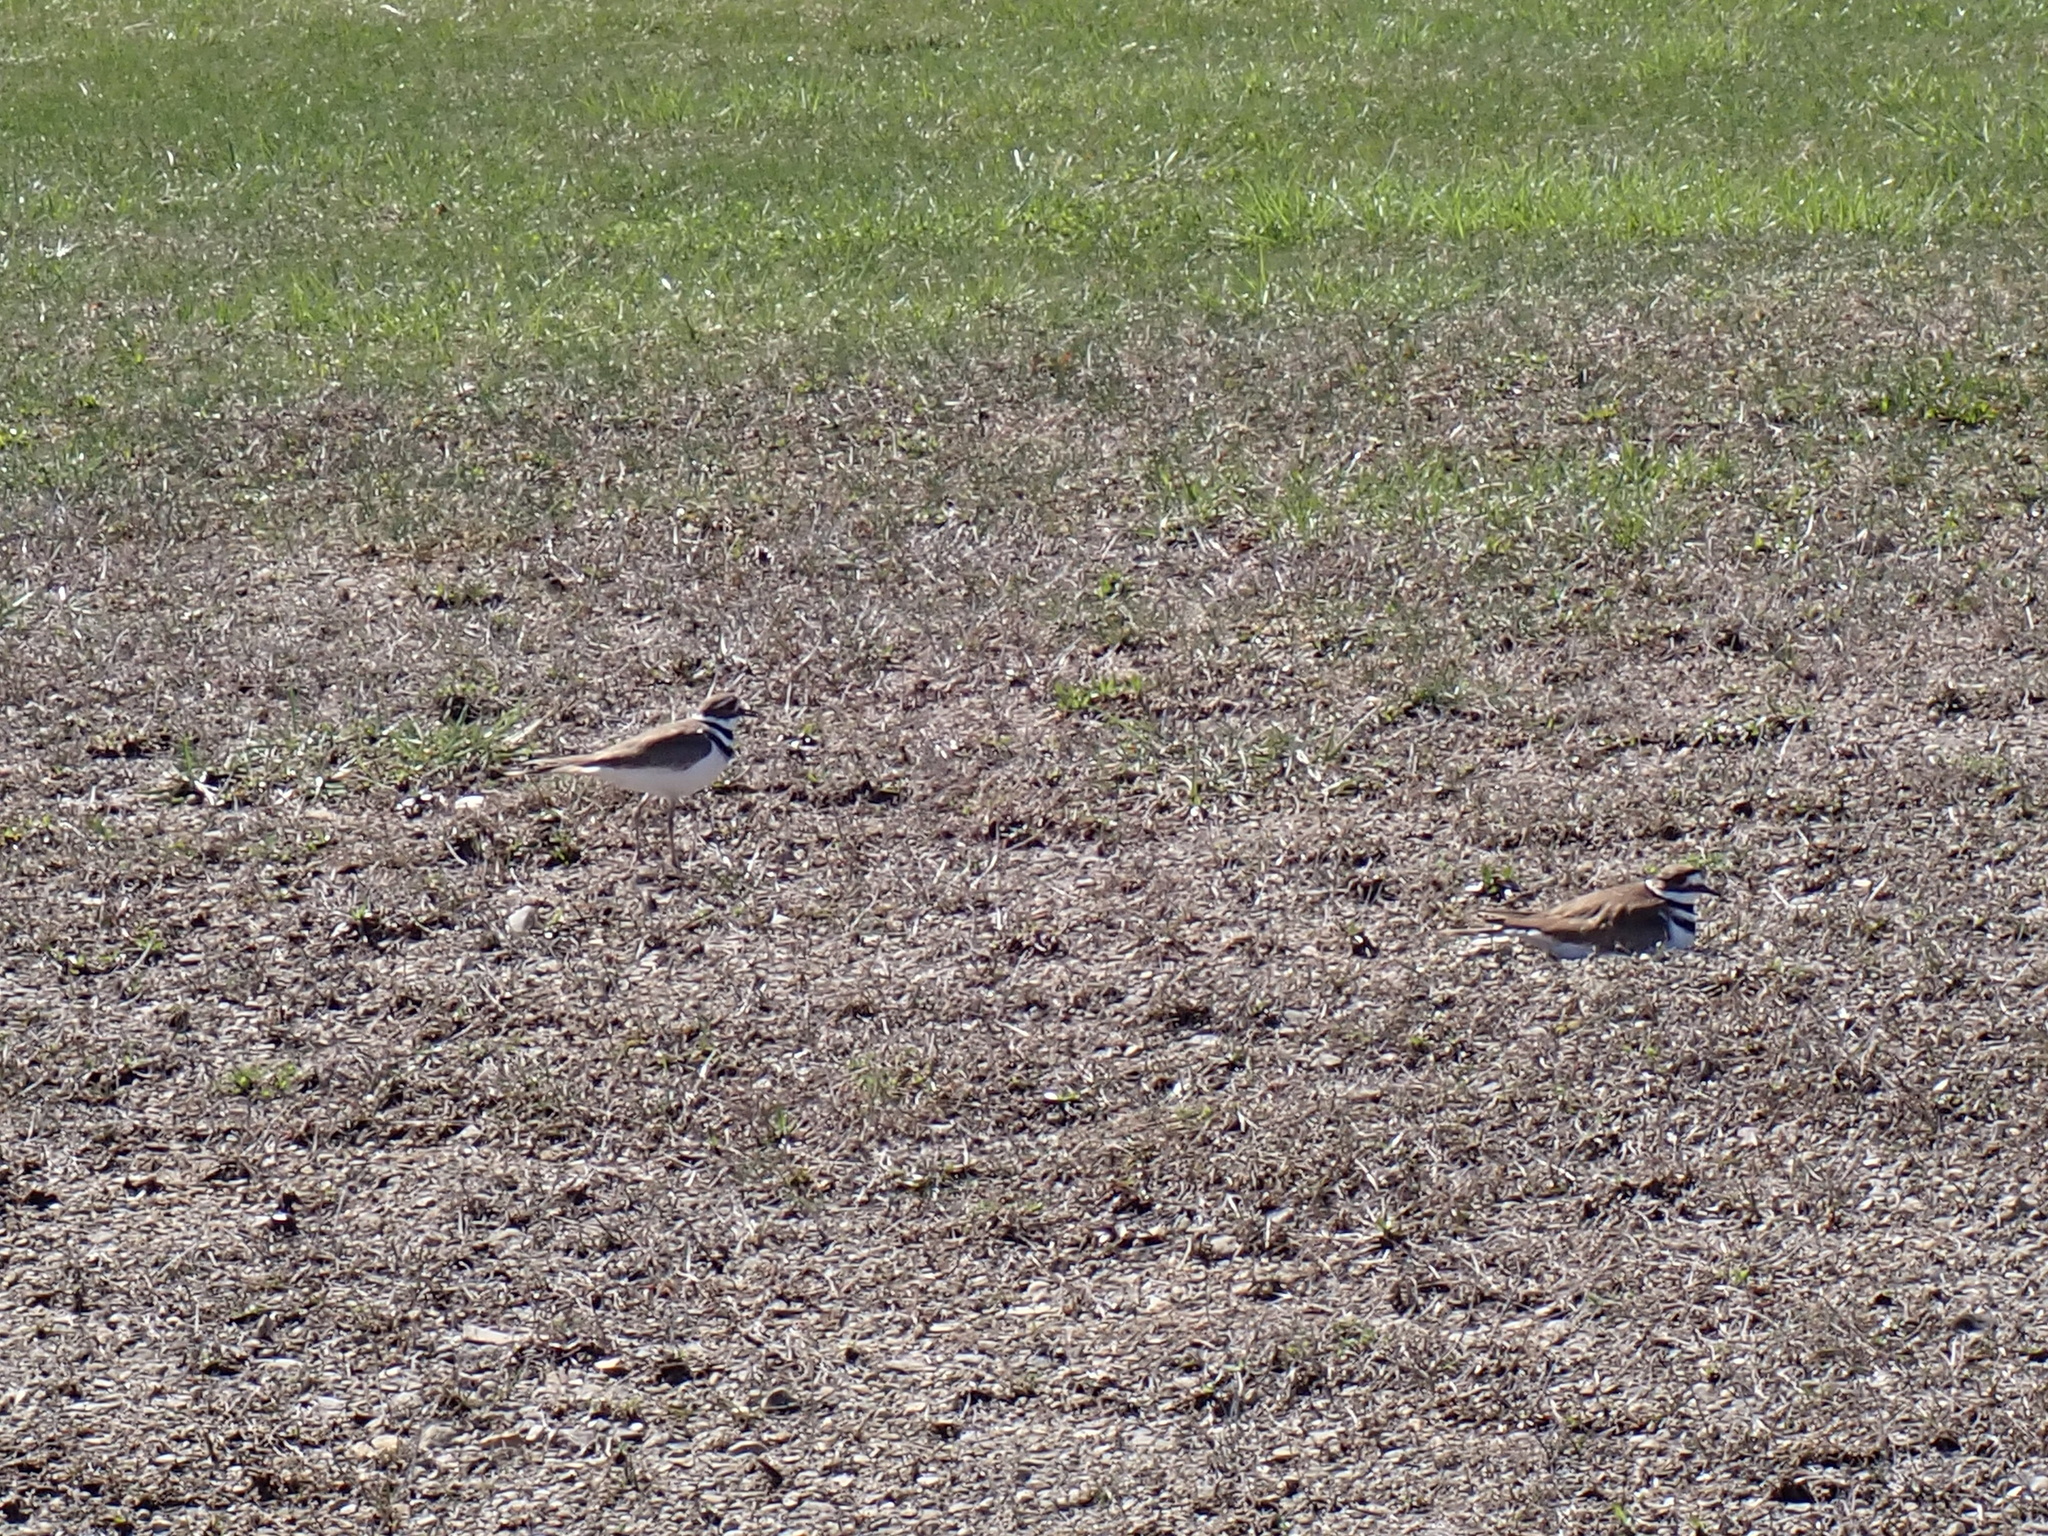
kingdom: Animalia
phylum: Chordata
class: Aves
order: Charadriiformes
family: Charadriidae
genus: Charadrius
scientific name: Charadrius vociferus
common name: Killdeer
